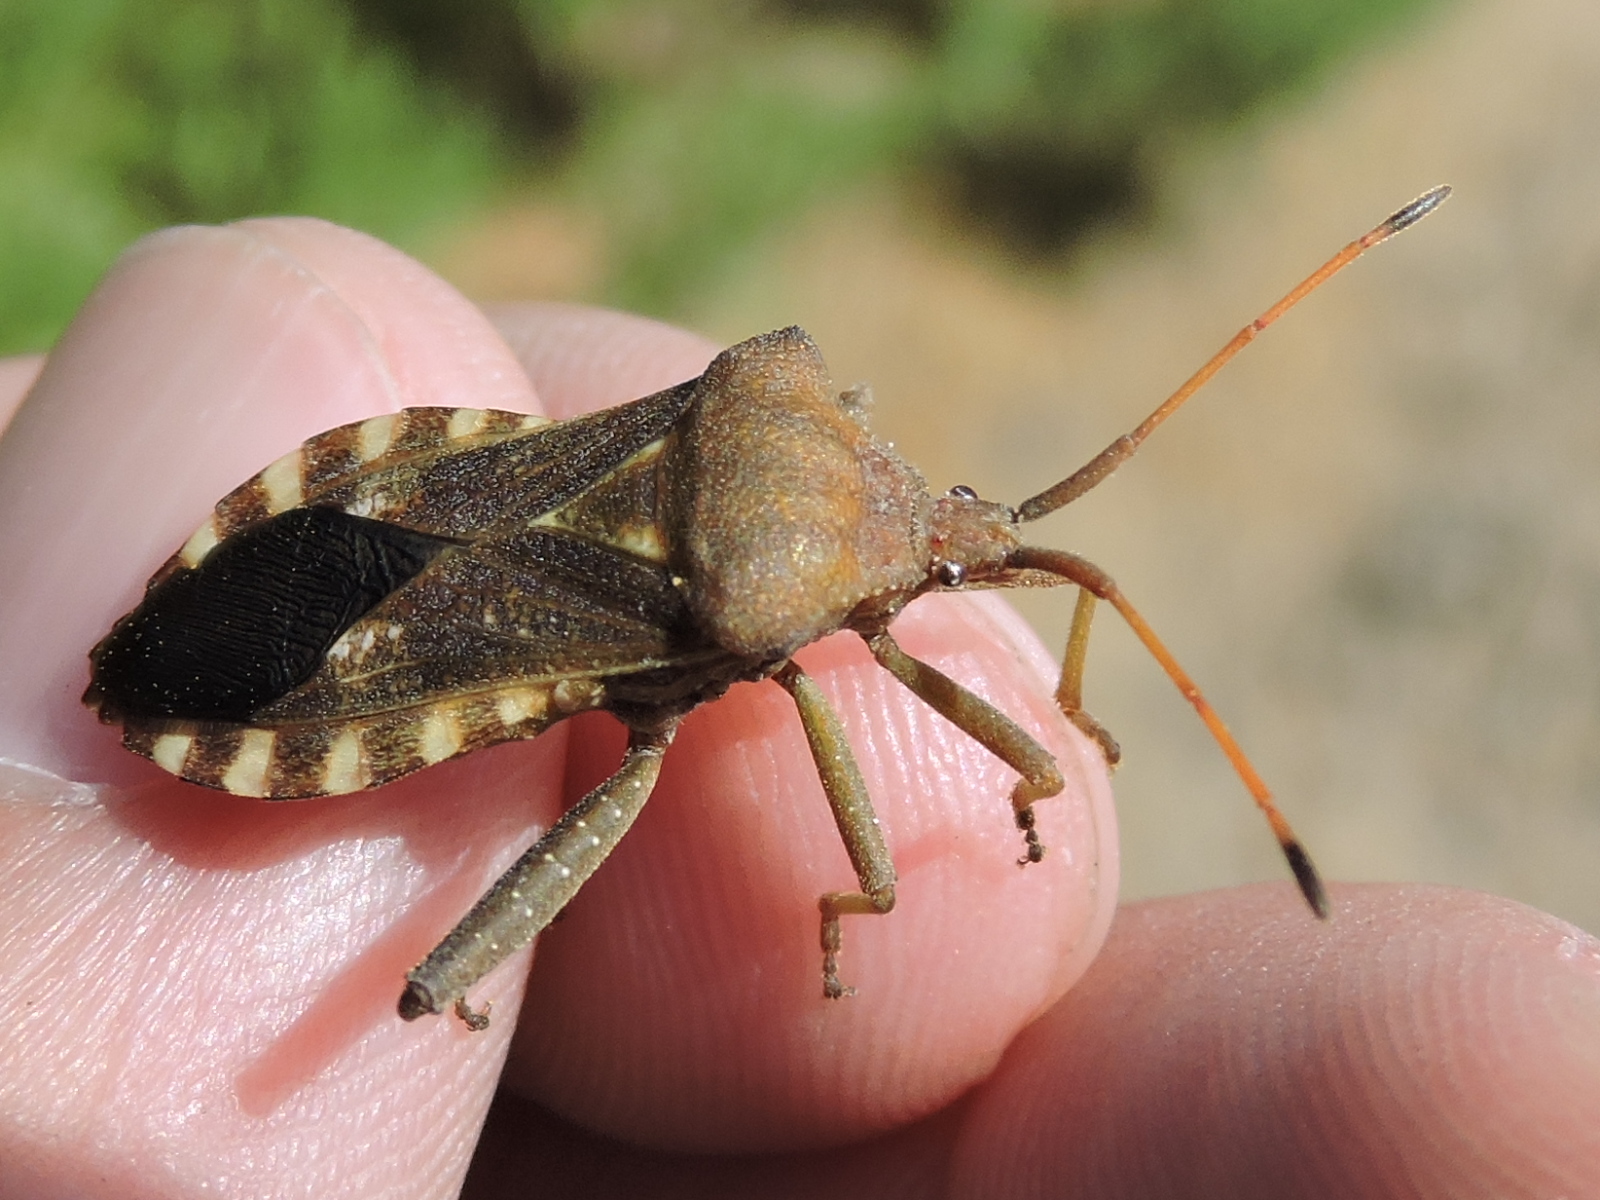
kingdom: Animalia
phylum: Arthropoda
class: Insecta
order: Hemiptera
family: Coreidae
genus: Mozena
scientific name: Mozena obtusa
